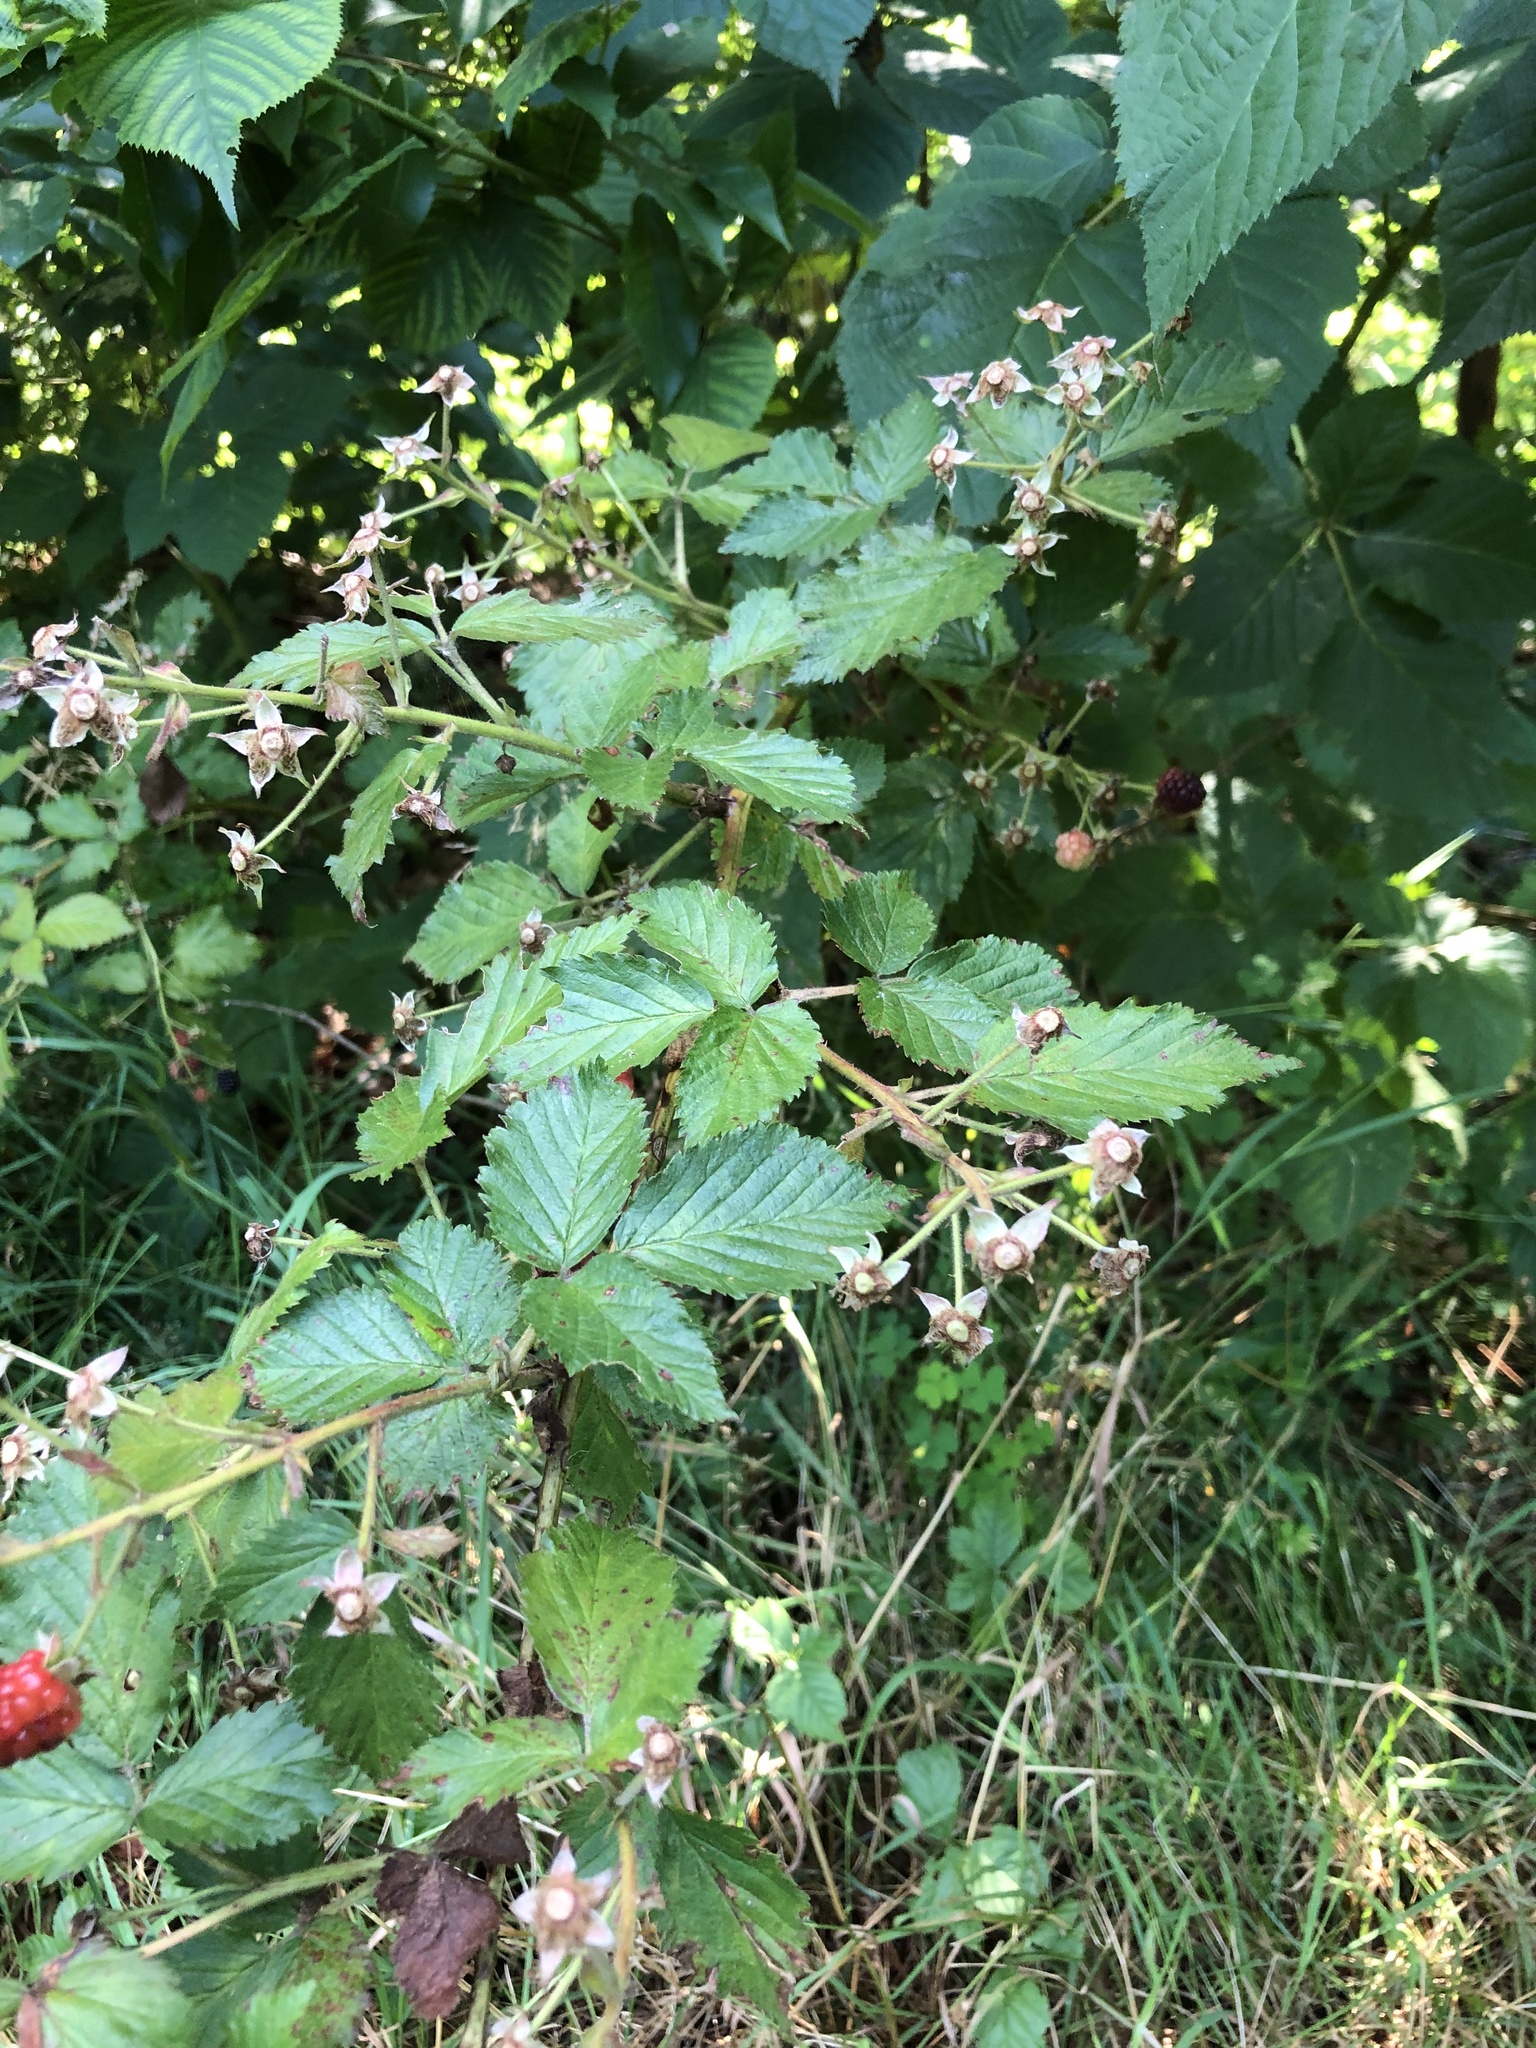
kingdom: Plantae
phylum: Tracheophyta
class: Magnoliopsida
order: Rosales
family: Rosaceae
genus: Rubus
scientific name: Rubus allegheniensis
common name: Allegheny blackberry
